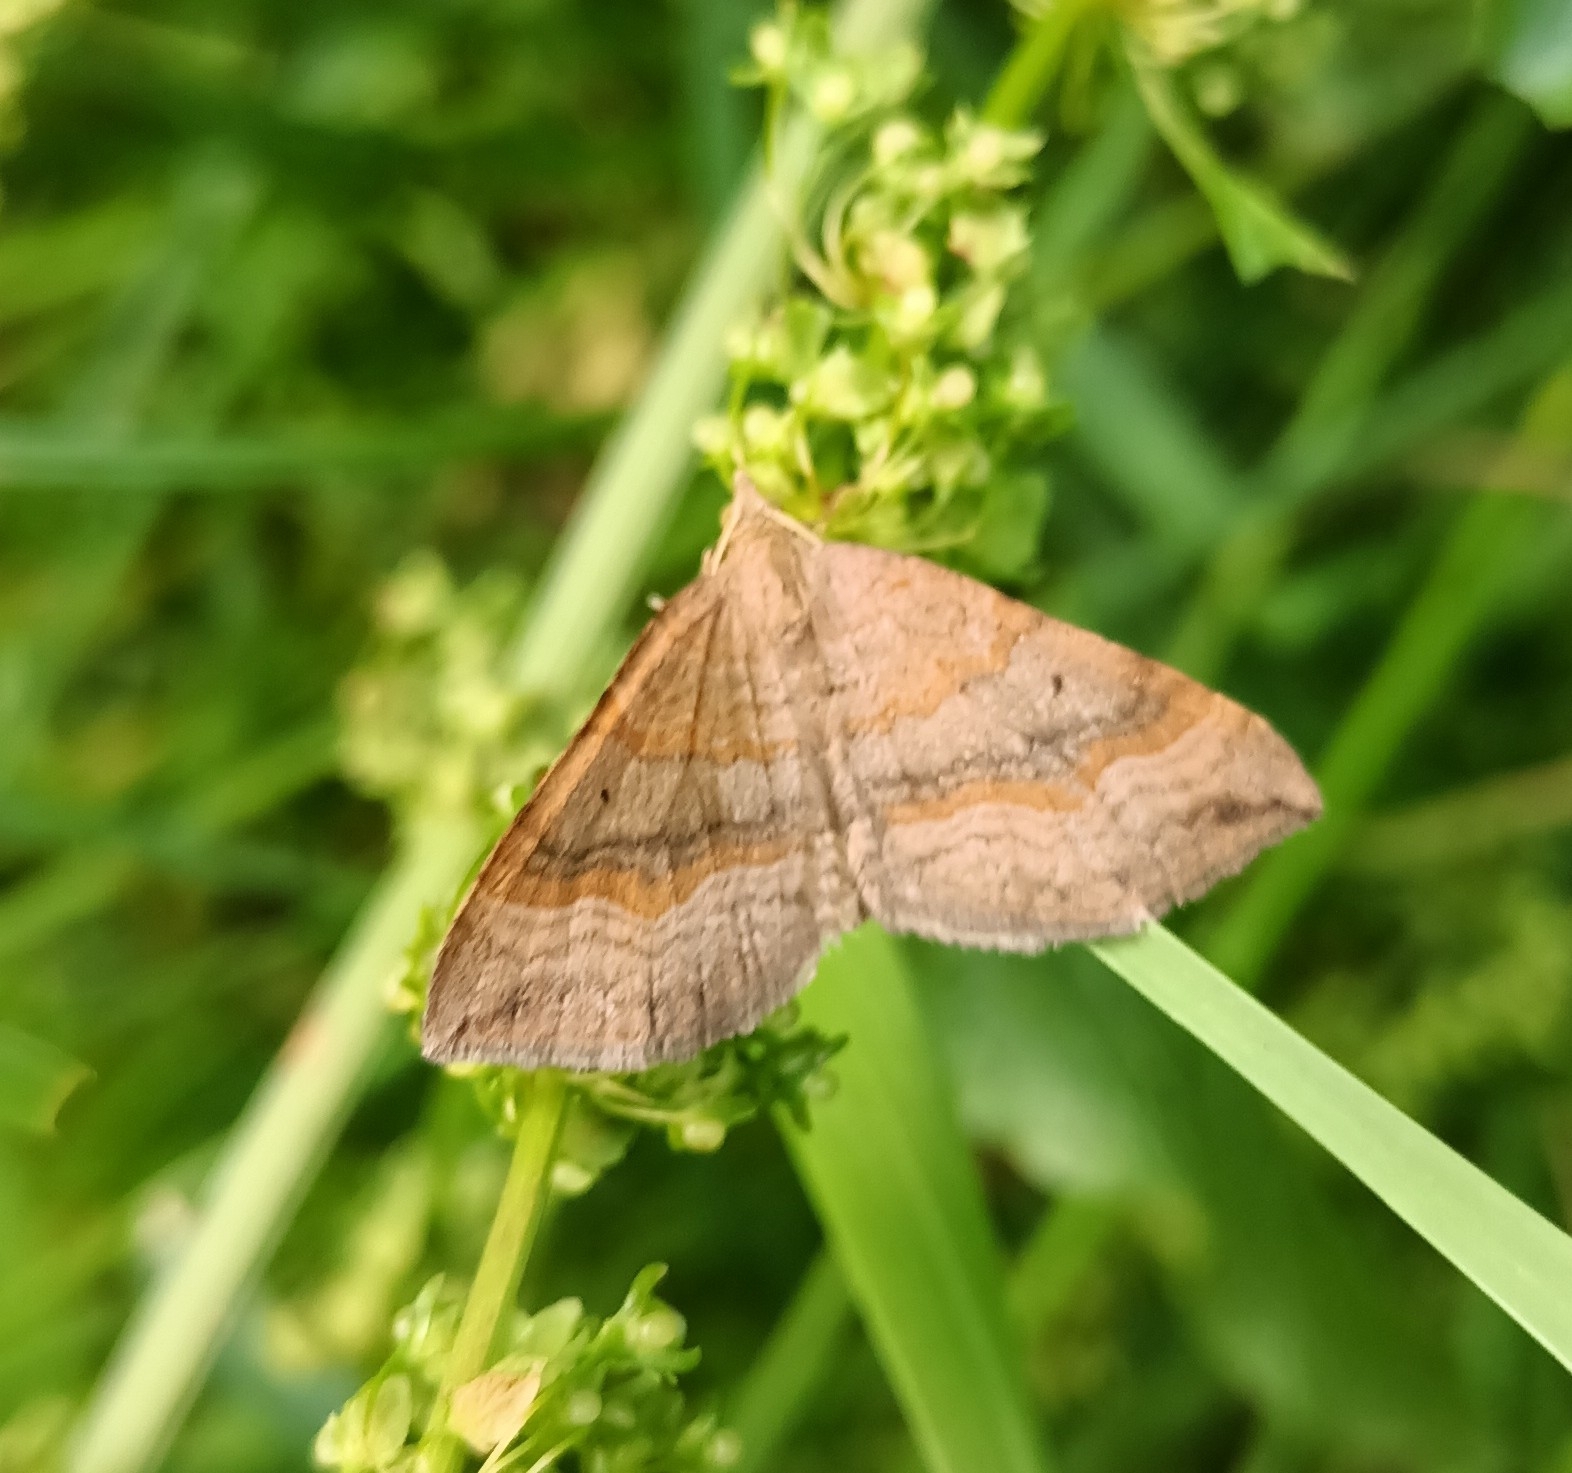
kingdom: Animalia
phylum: Arthropoda
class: Insecta
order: Lepidoptera
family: Geometridae
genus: Scotopteryx
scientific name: Scotopteryx chenopodiata
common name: Shaded broad-bar
